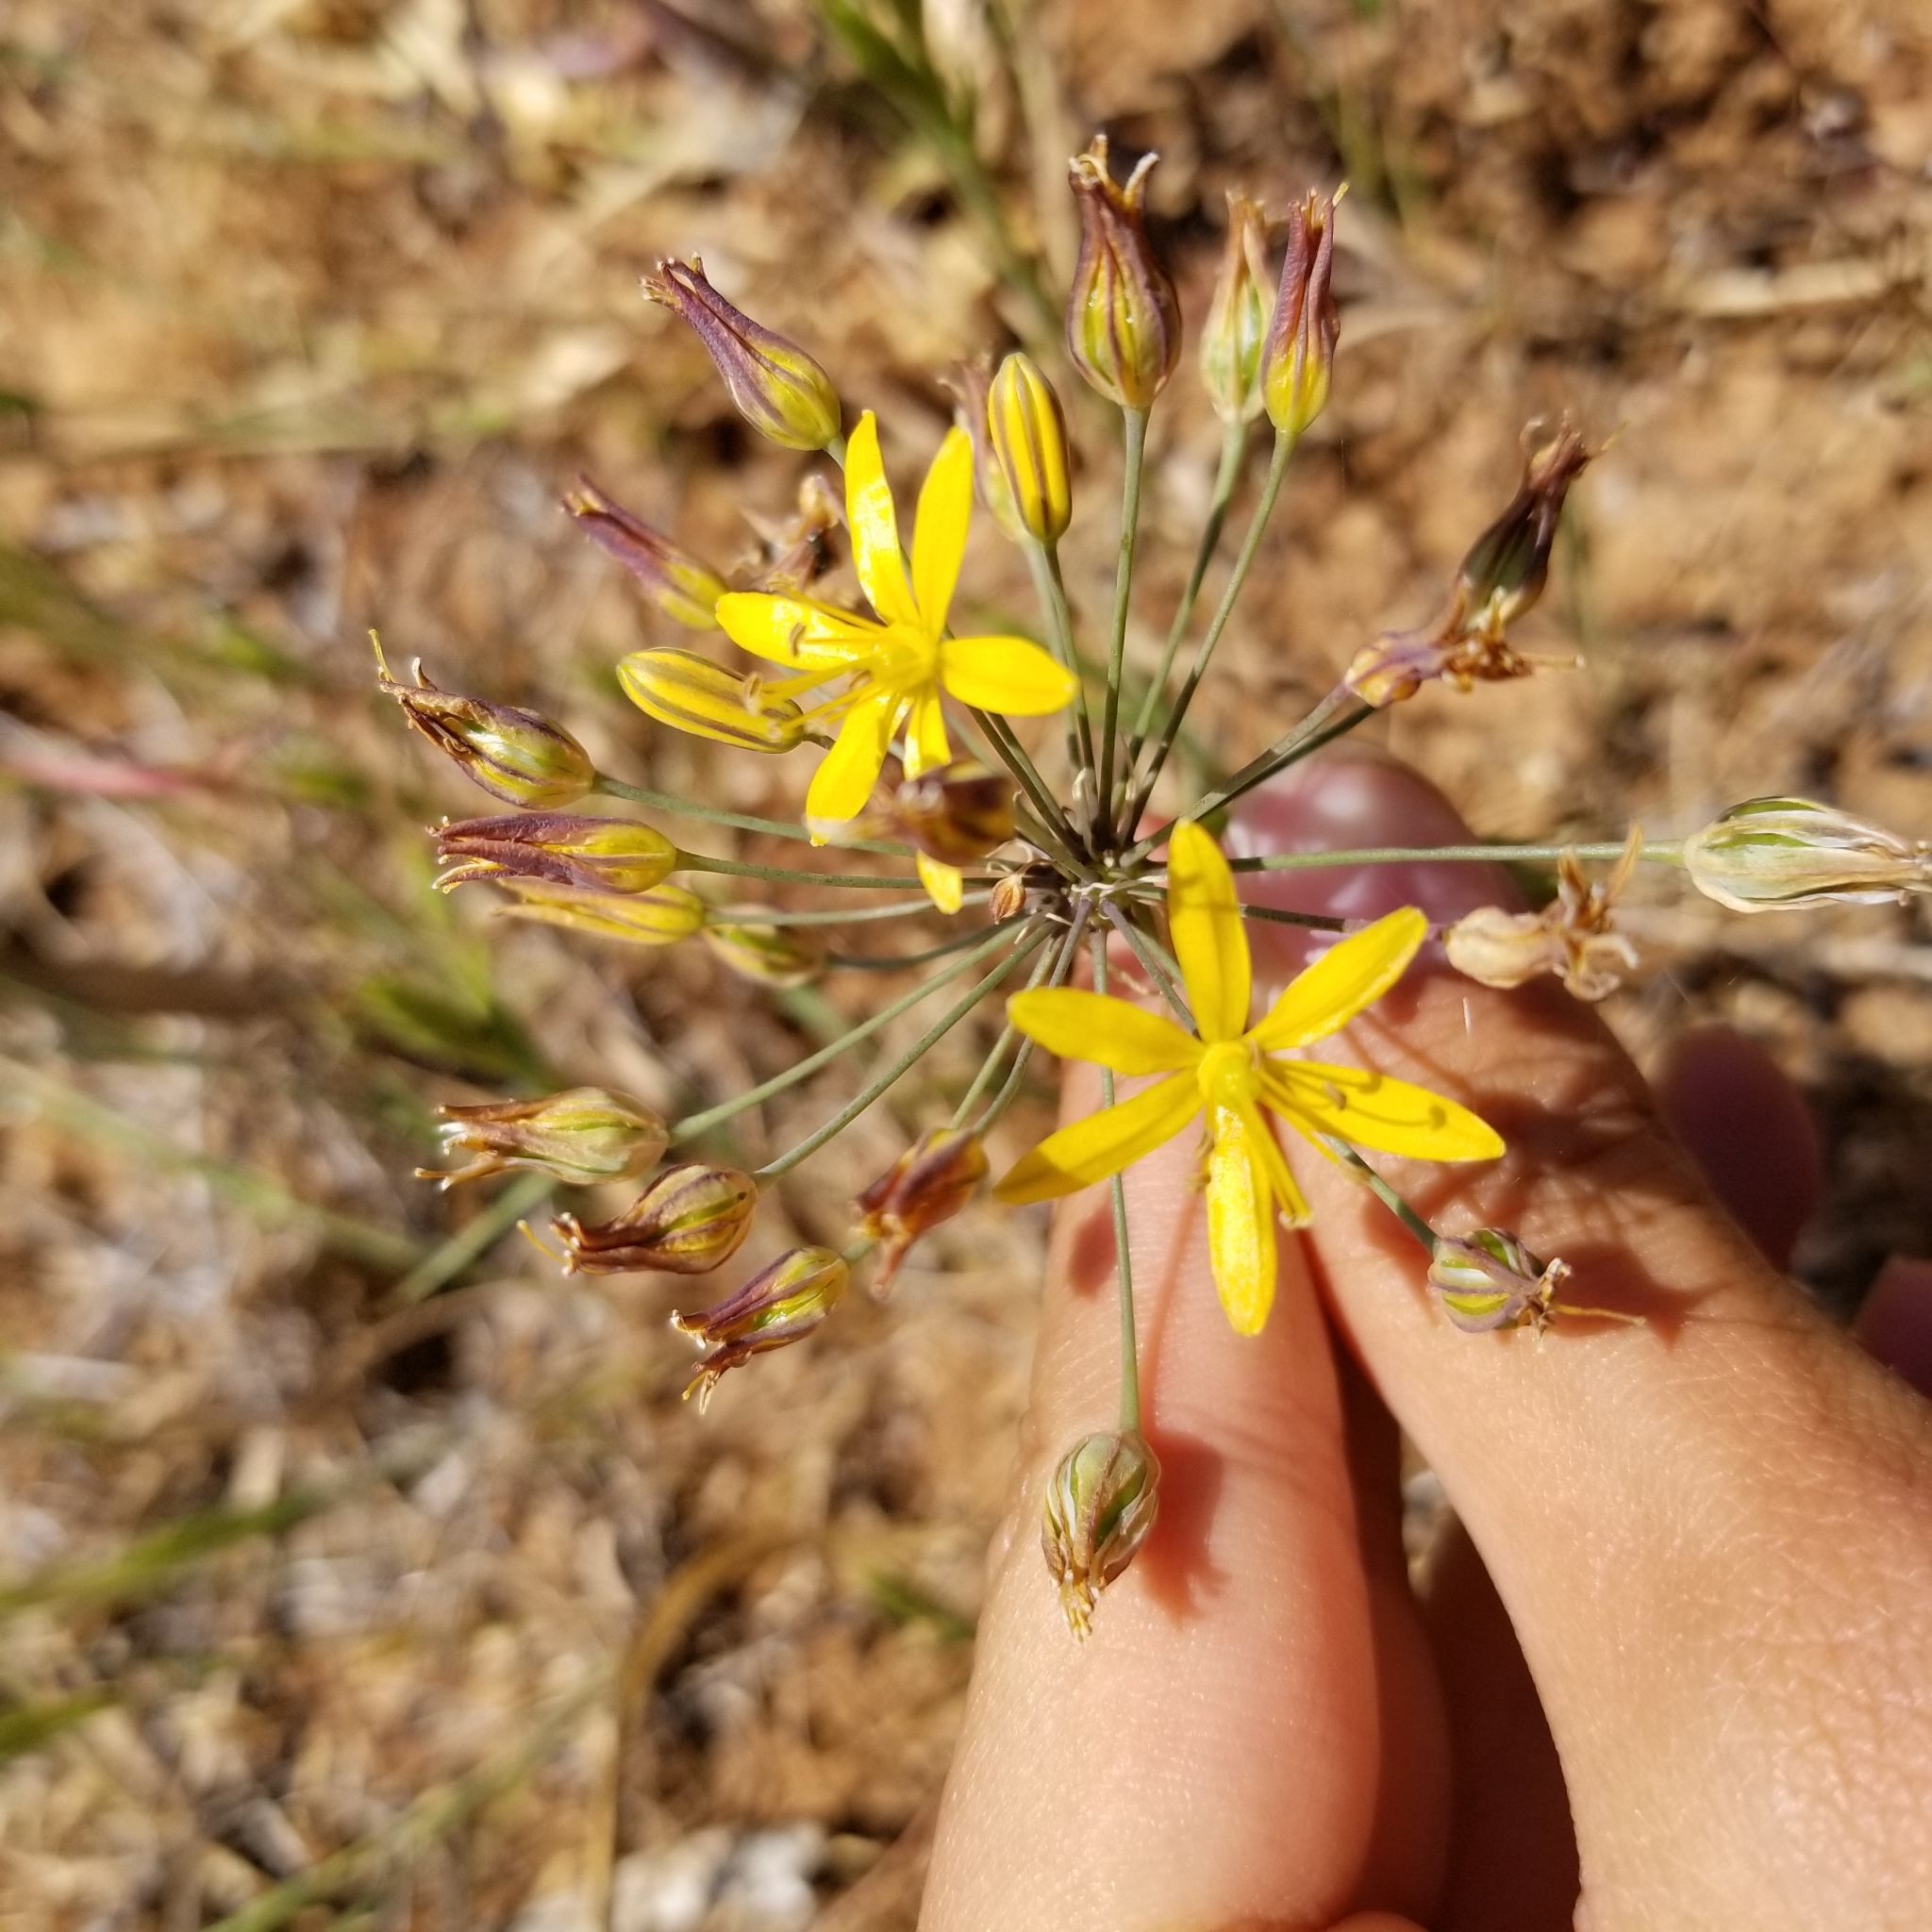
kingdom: Plantae
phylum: Tracheophyta
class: Liliopsida
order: Asparagales
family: Asparagaceae
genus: Bloomeria
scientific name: Bloomeria crocea
